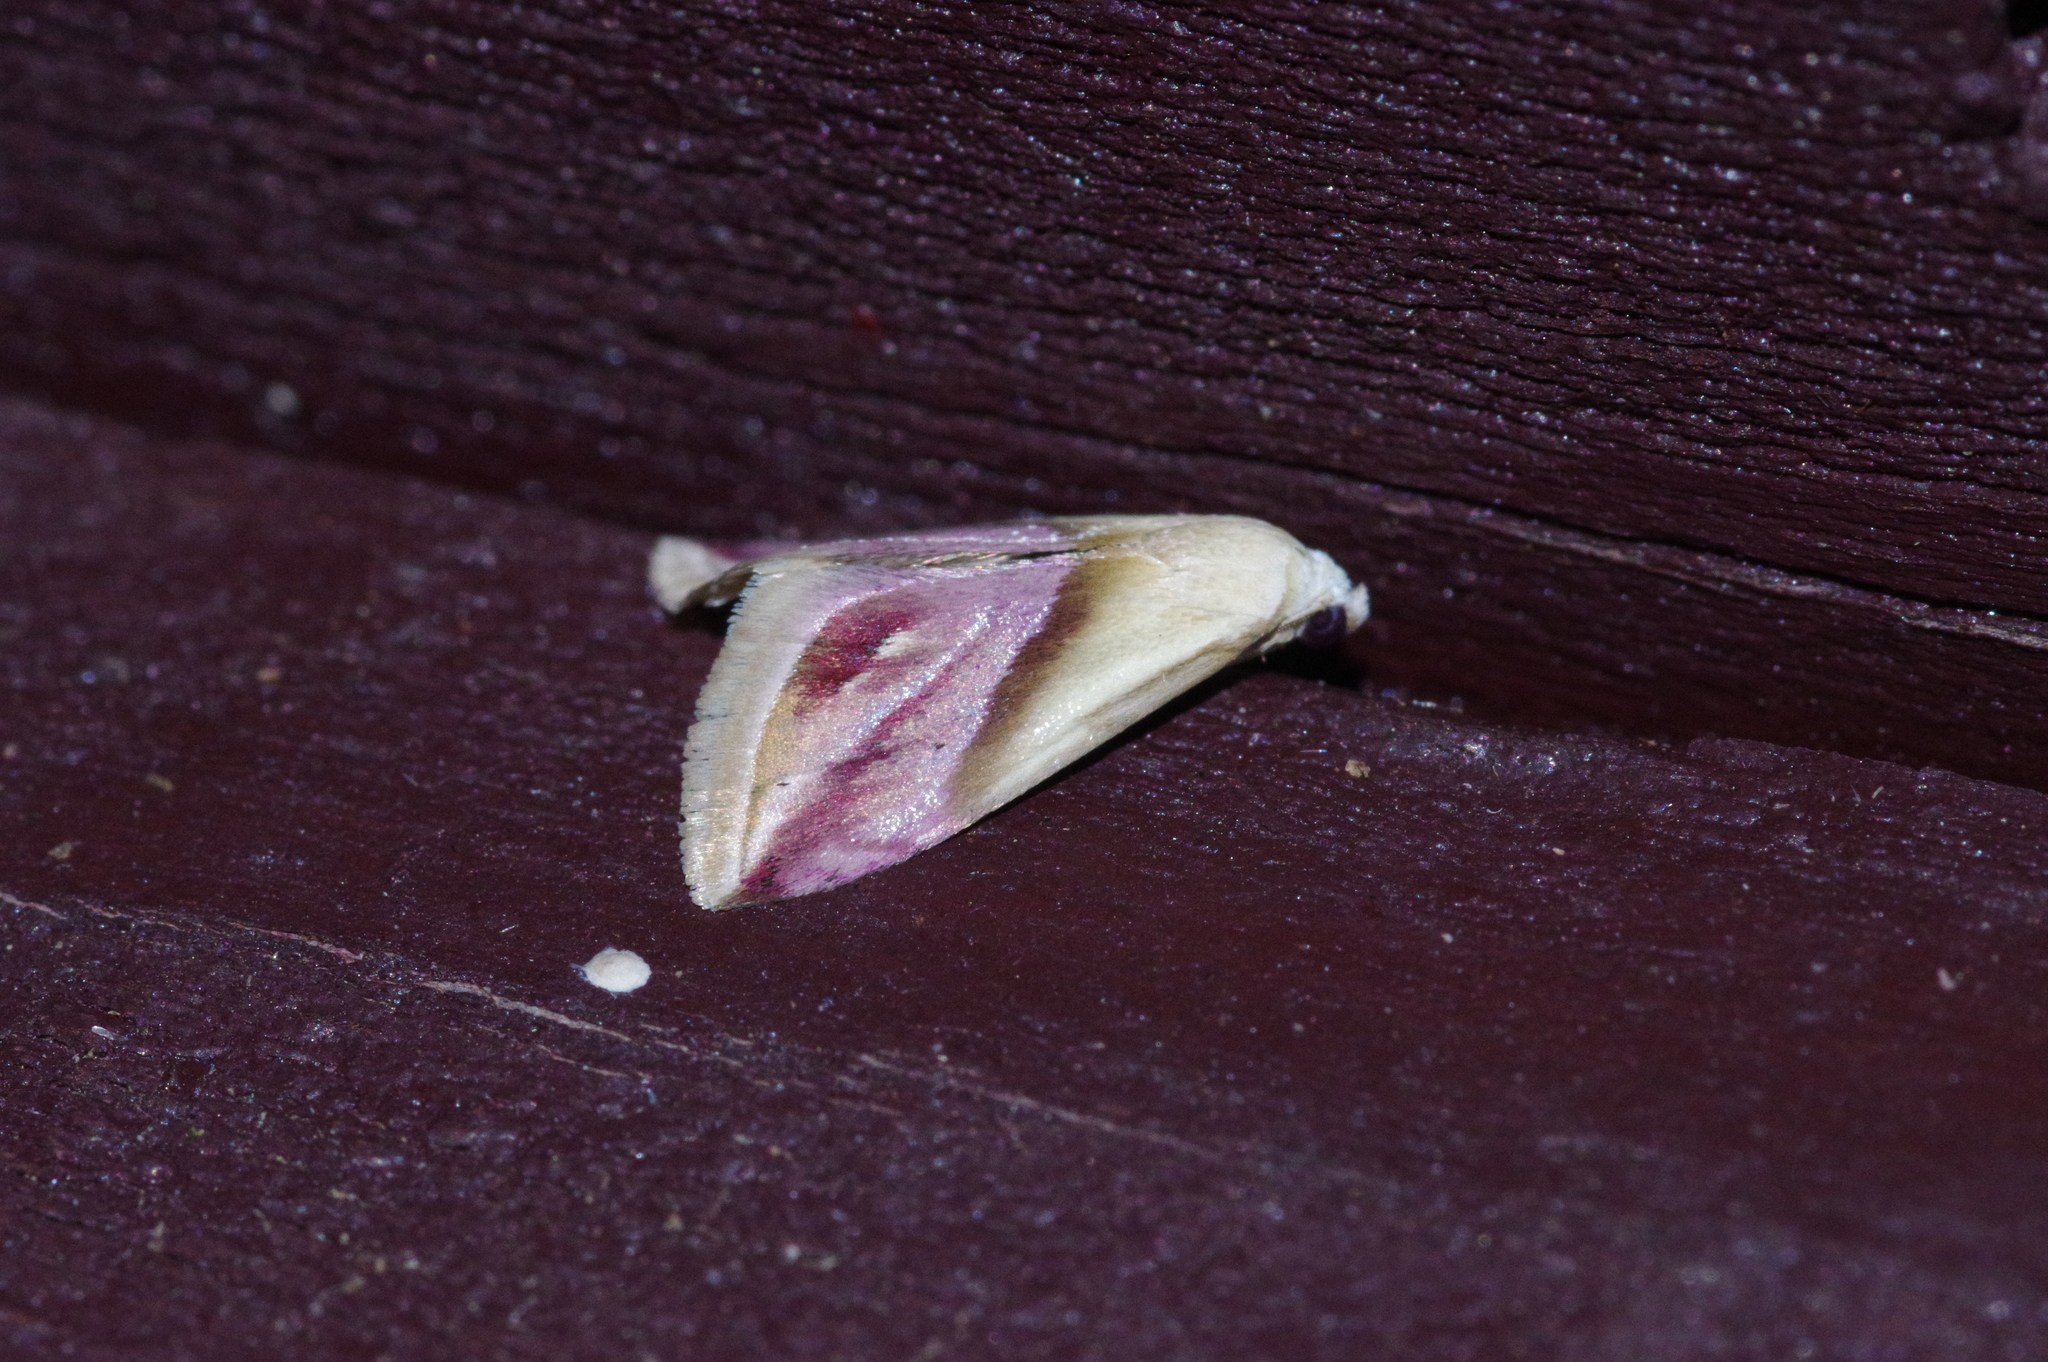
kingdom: Animalia
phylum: Arthropoda
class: Insecta
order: Lepidoptera
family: Noctuidae
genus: Eublemma
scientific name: Eublemma cochylioides
